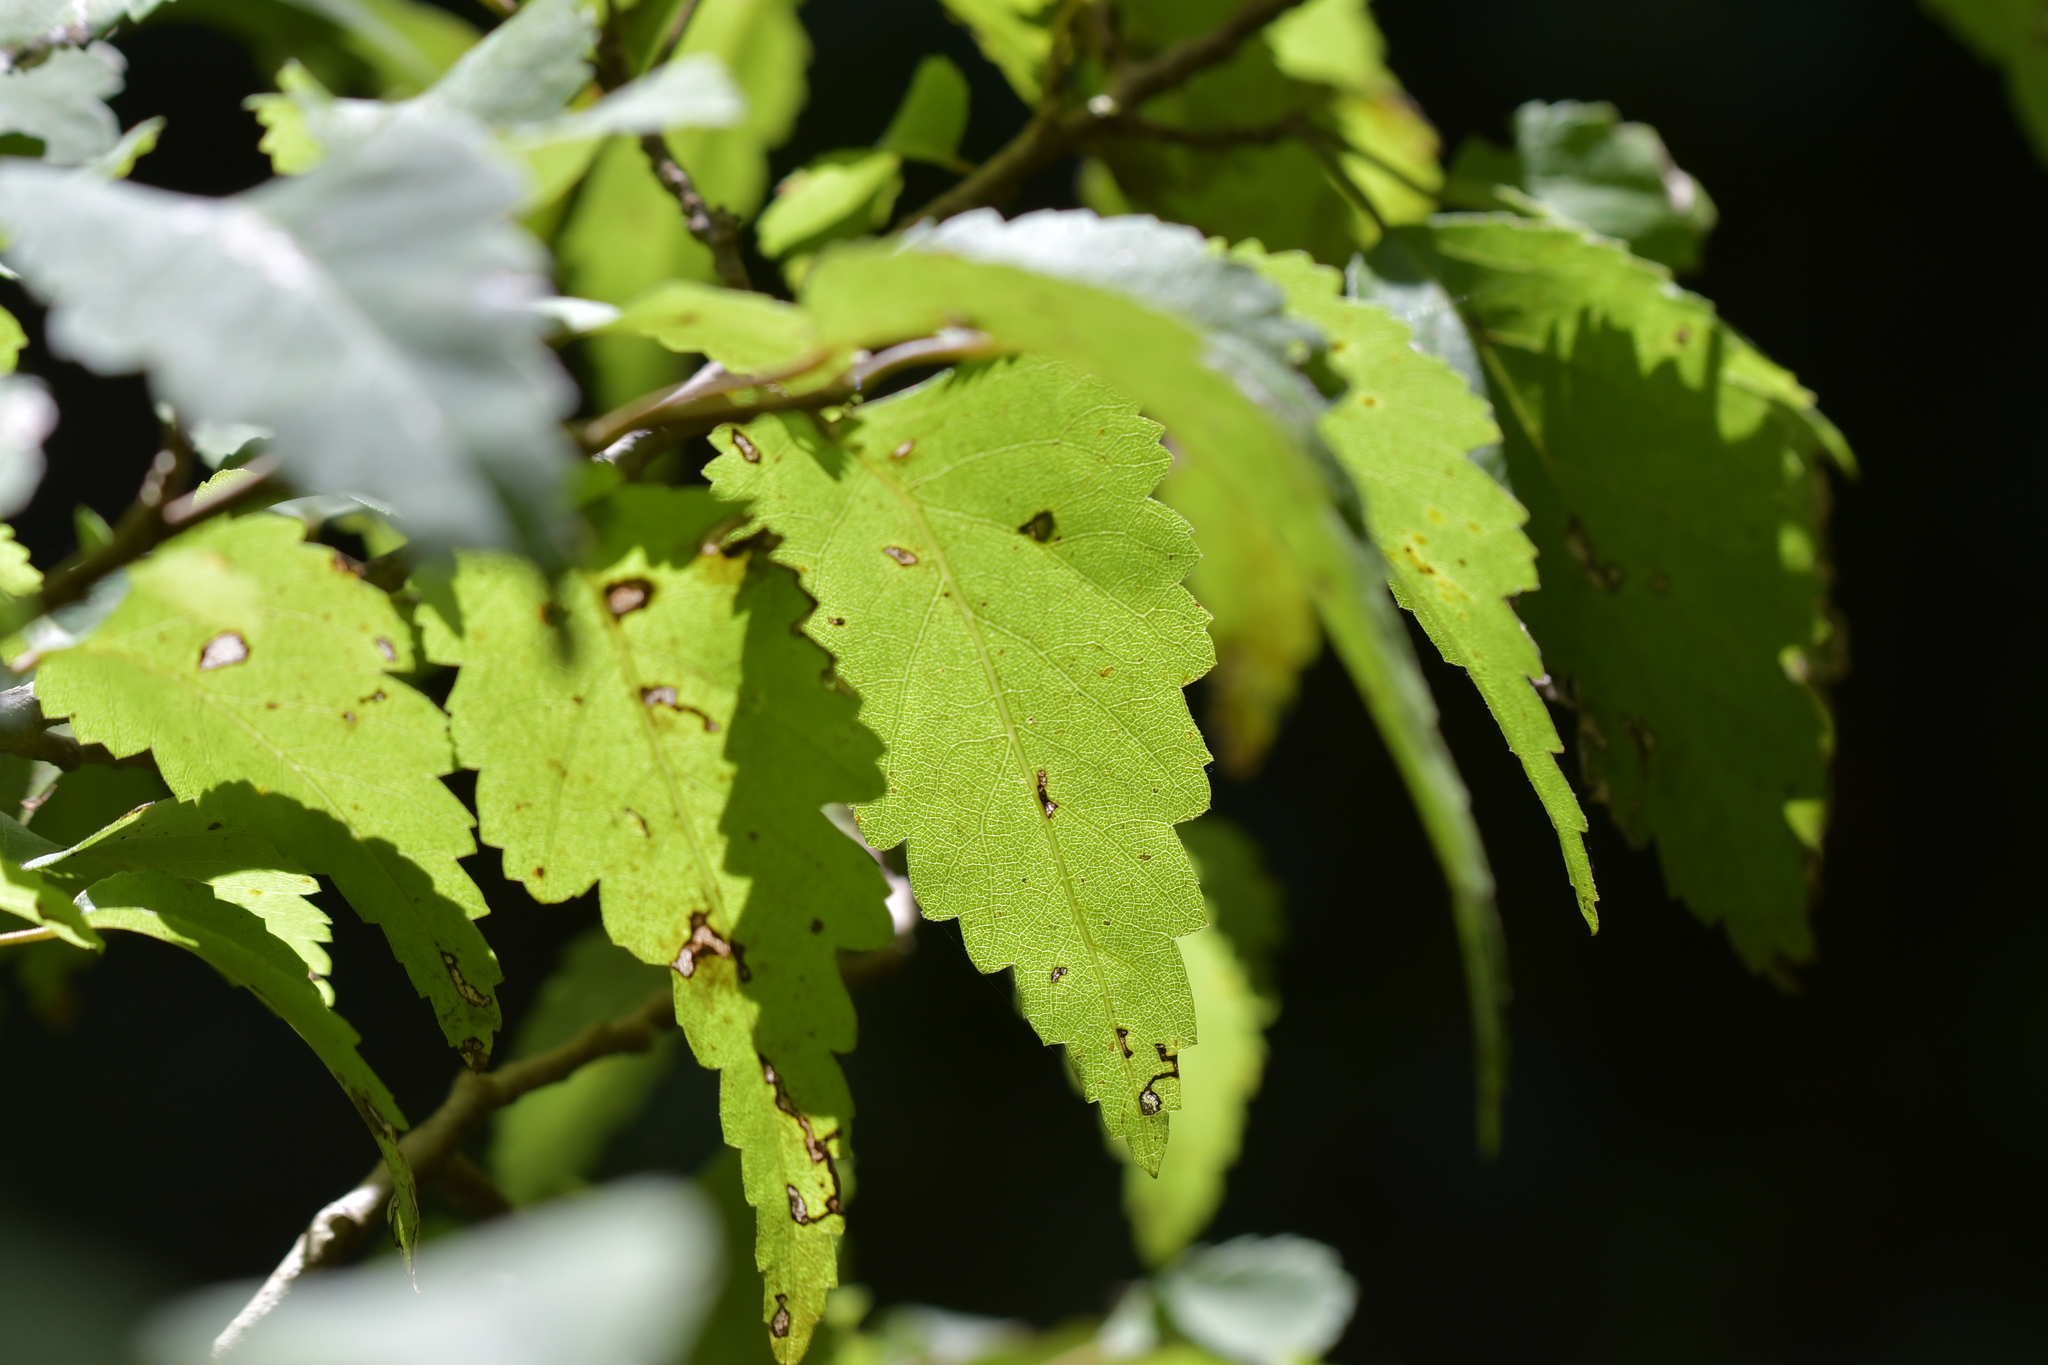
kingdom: Plantae
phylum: Tracheophyta
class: Magnoliopsida
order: Malvales
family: Malvaceae
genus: Plagianthus
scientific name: Plagianthus regius
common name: Manatu
